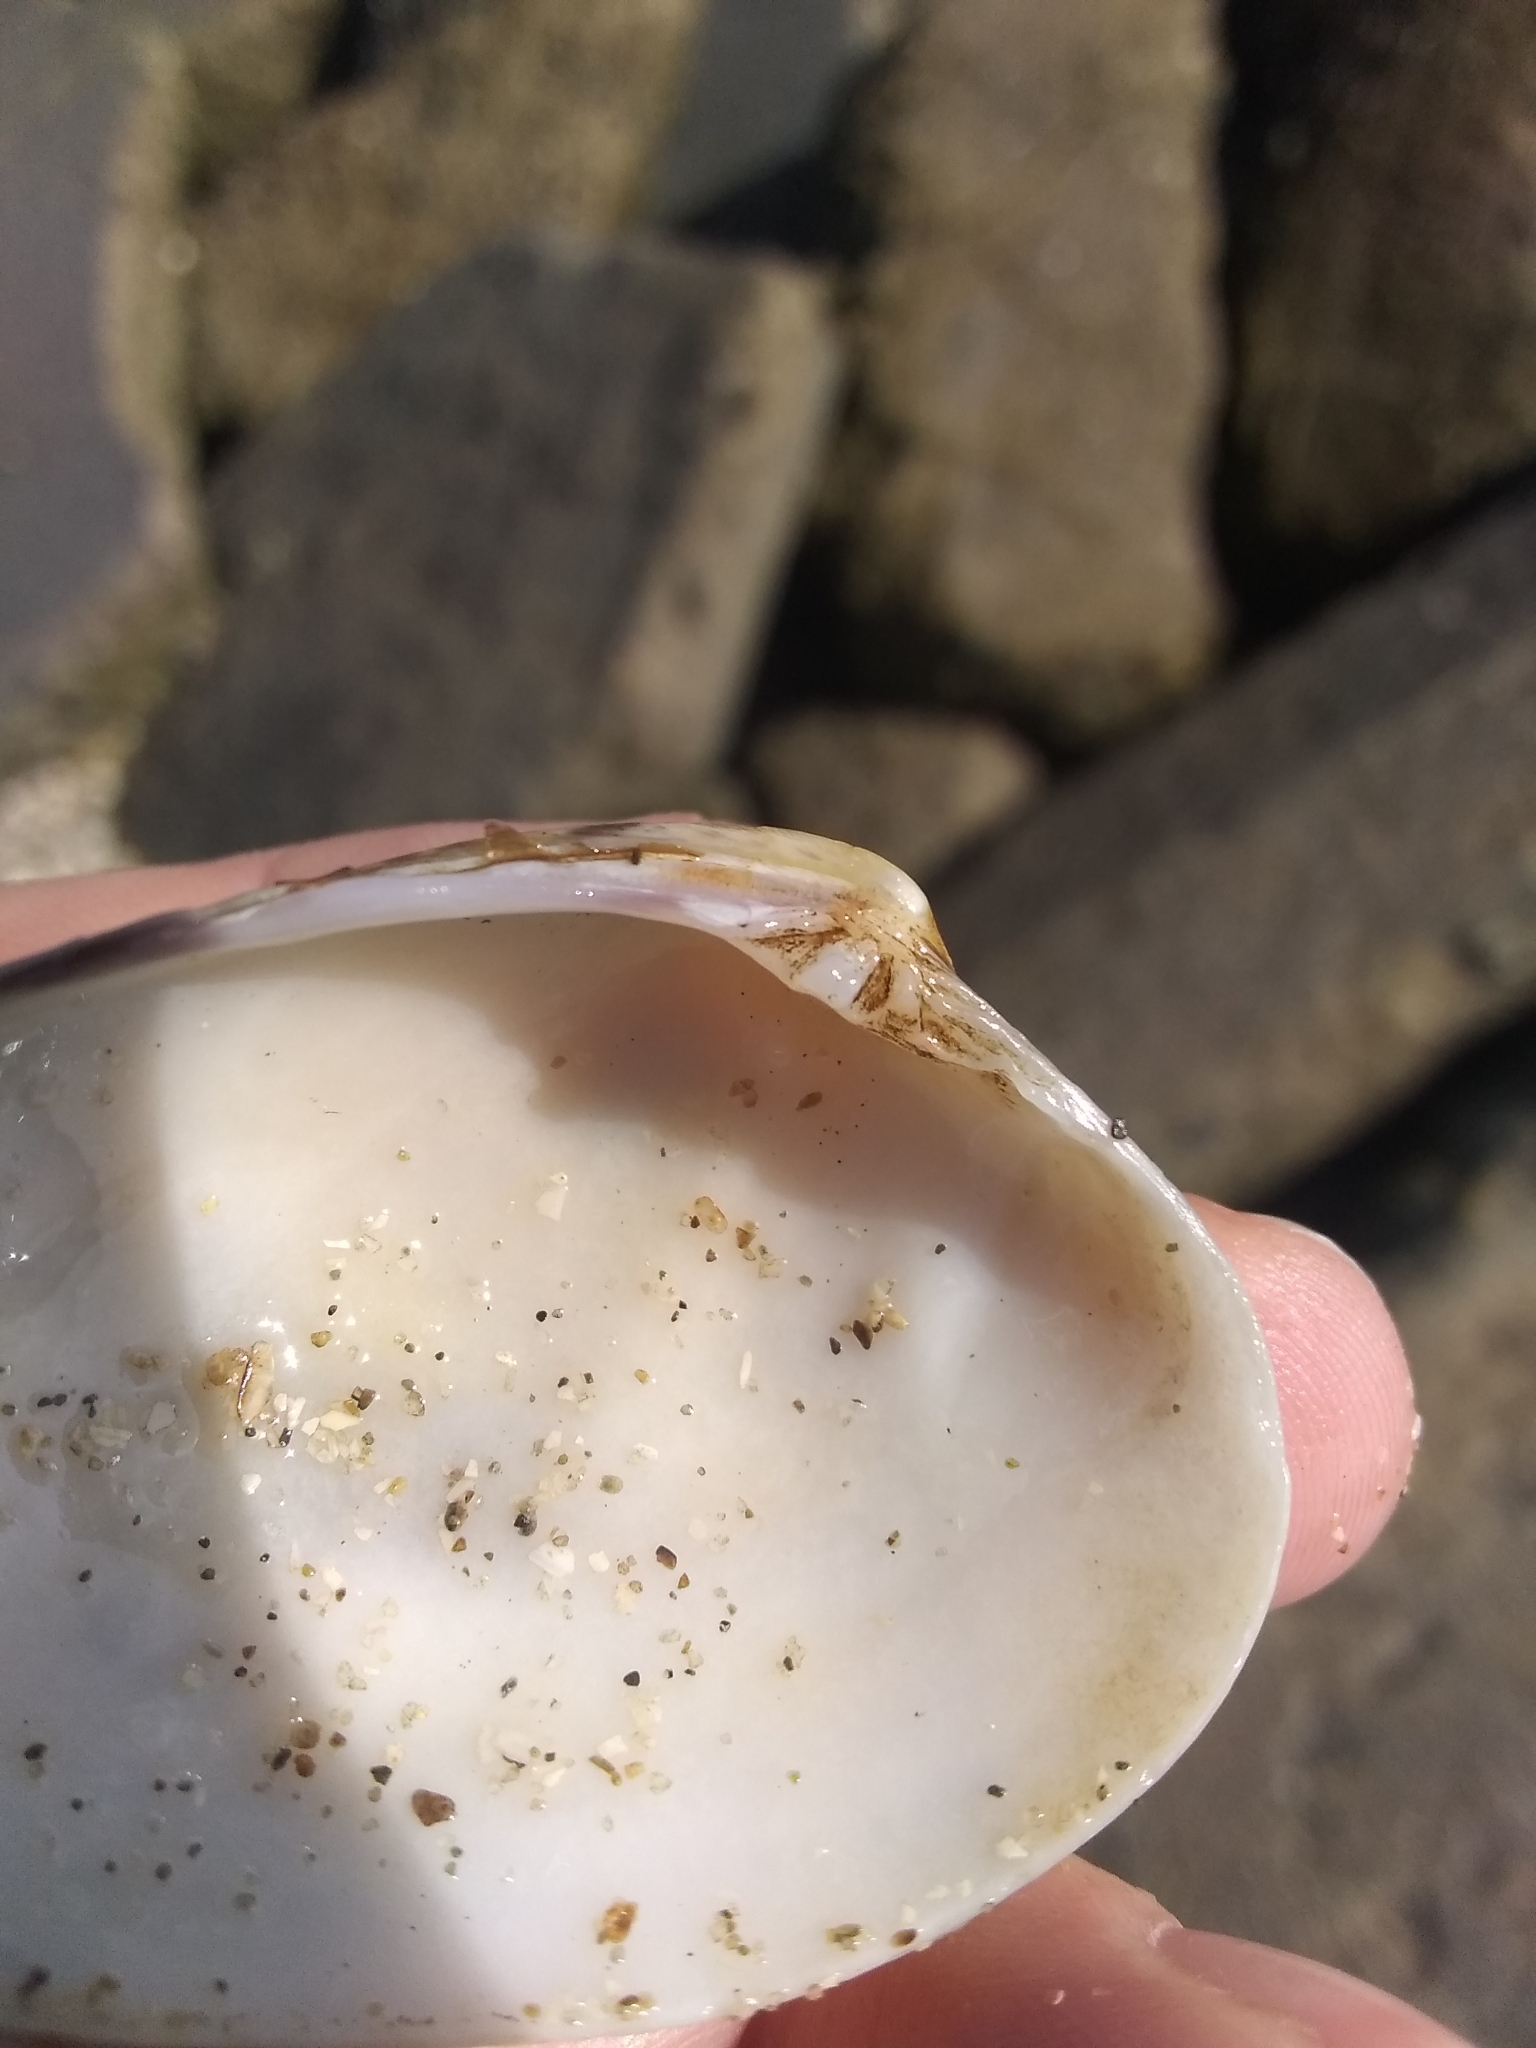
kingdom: Animalia
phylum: Mollusca
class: Bivalvia
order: Venerida
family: Veneridae
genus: Ruditapes
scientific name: Ruditapes philippinarum
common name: Manila clam
